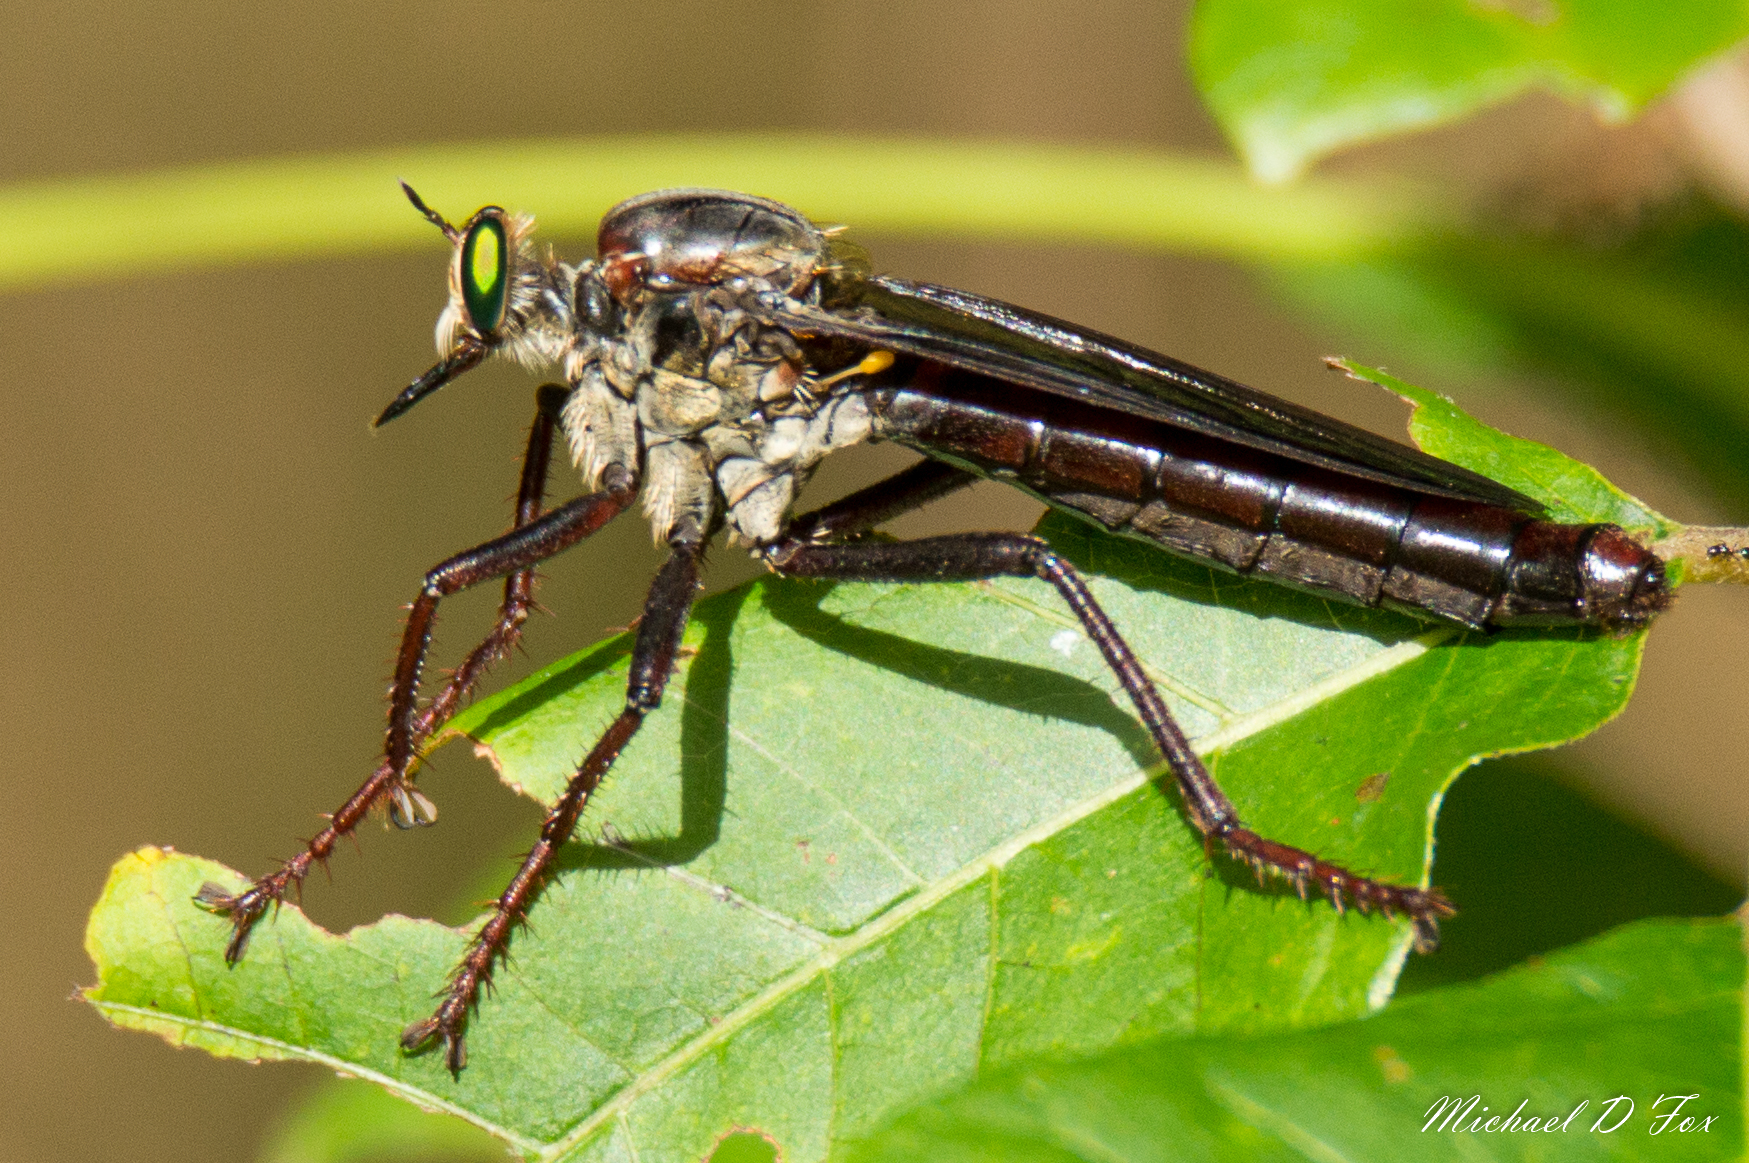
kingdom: Animalia
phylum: Arthropoda
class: Insecta
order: Diptera
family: Asilidae
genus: Microstylum
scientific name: Microstylum morosum
